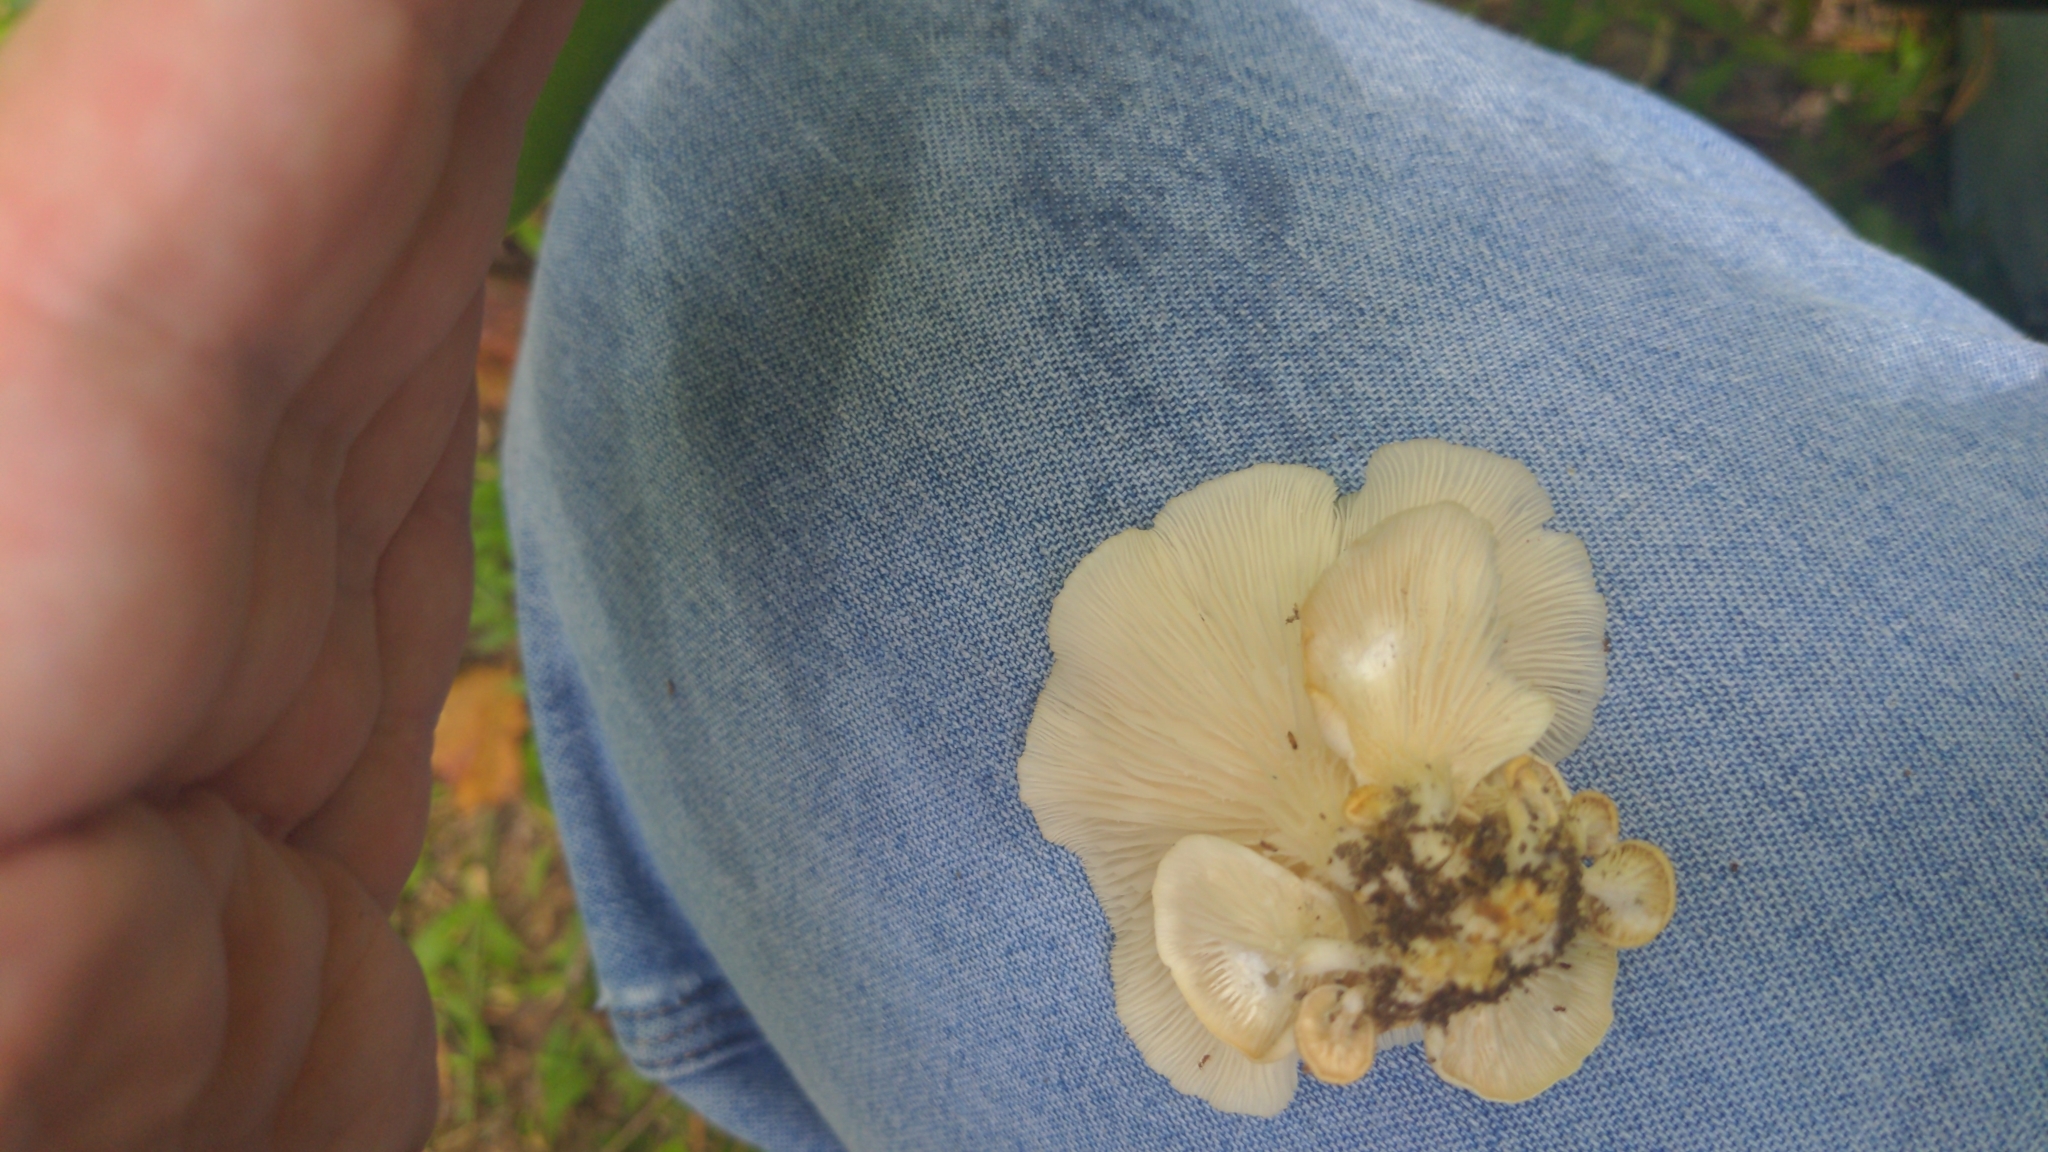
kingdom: Fungi
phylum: Basidiomycota
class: Agaricomycetes
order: Agaricales
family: Pleurotaceae
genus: Pleurotus
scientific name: Pleurotus pulmonarius
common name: Pale oyster
